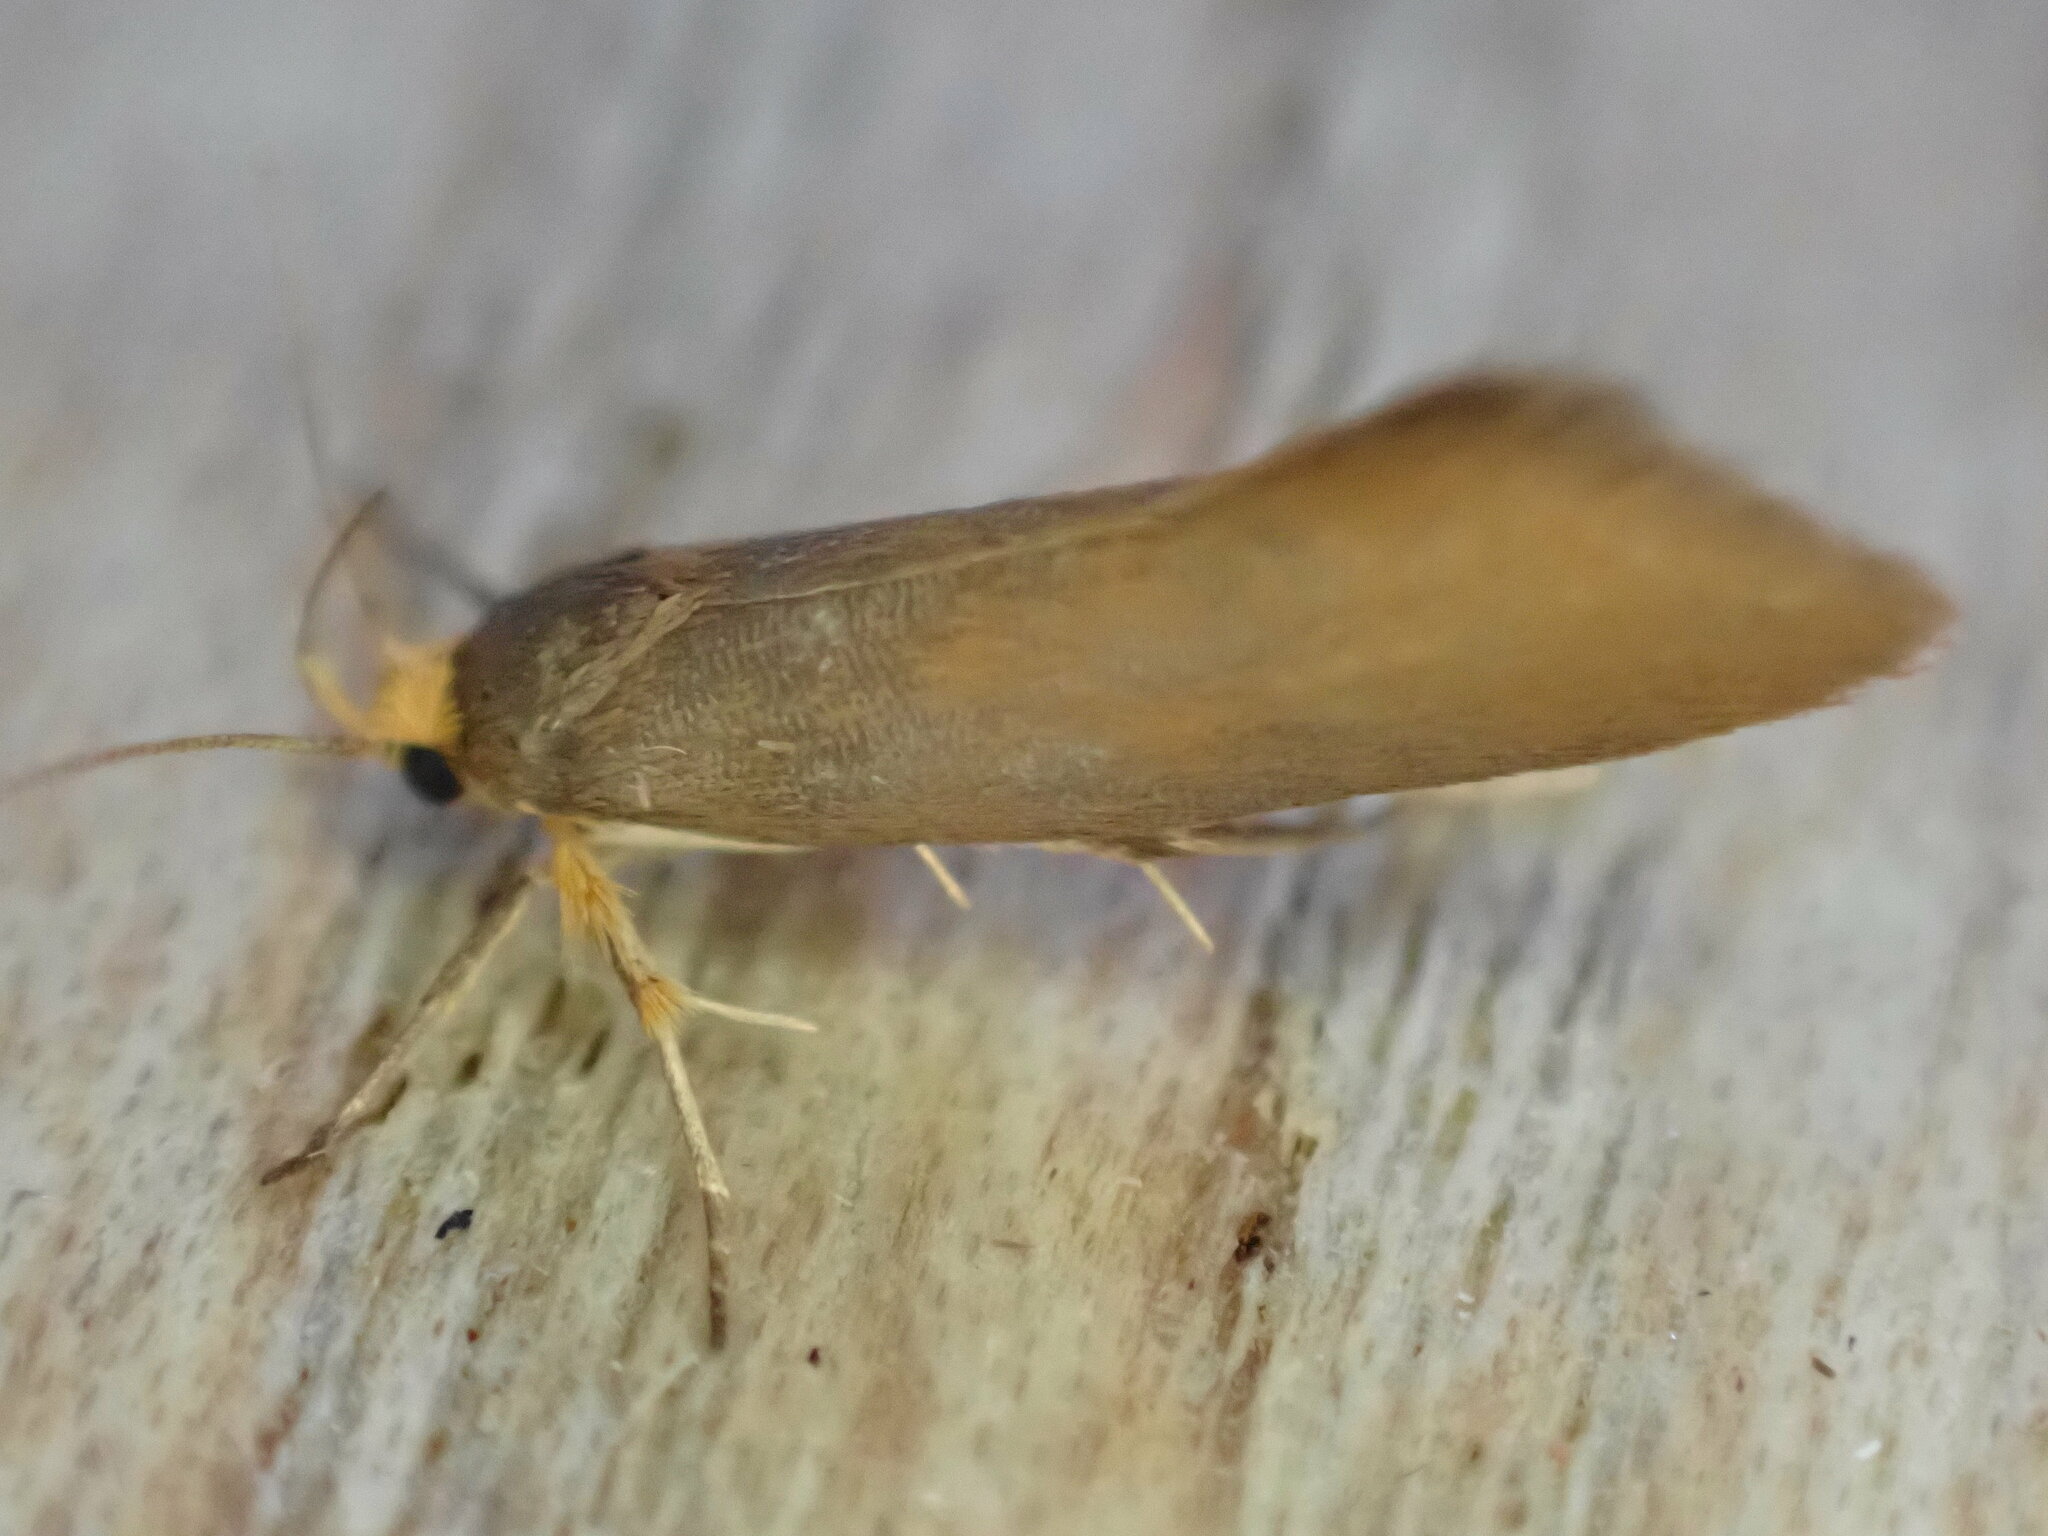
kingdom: Animalia
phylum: Arthropoda
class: Insecta
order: Lepidoptera
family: Oecophoridae
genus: Borkhausenia
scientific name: Borkhausenia Crassa unitella
